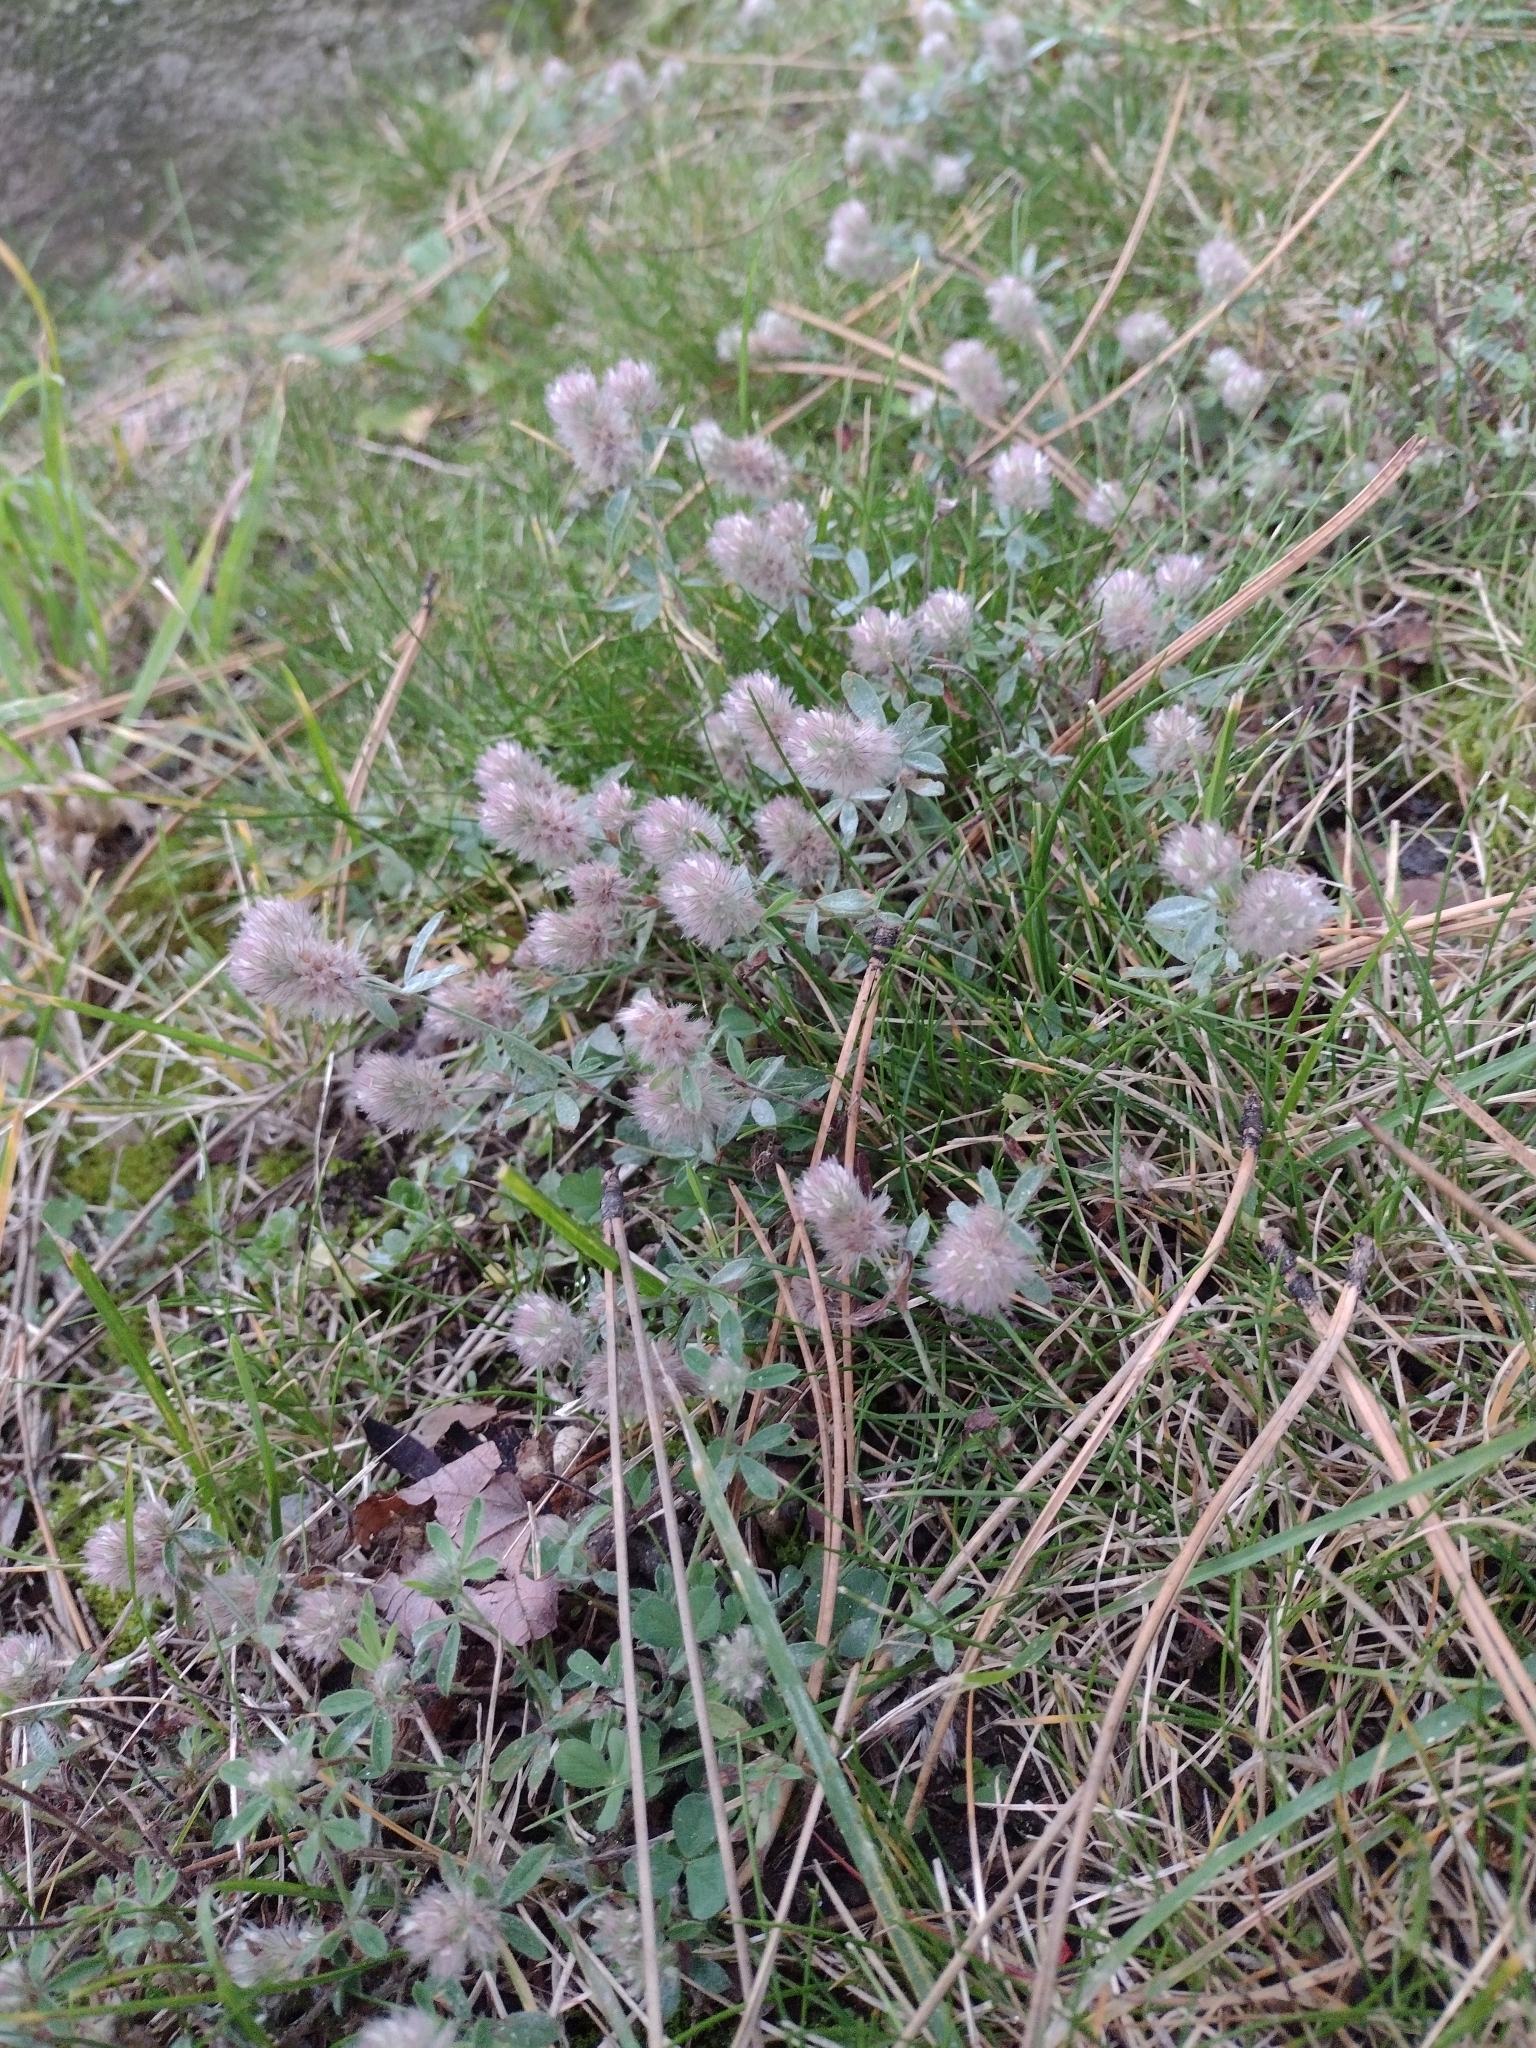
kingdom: Plantae
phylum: Tracheophyta
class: Magnoliopsida
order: Fabales
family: Fabaceae
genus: Trifolium
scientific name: Trifolium arvense
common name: Hare's-foot clover
